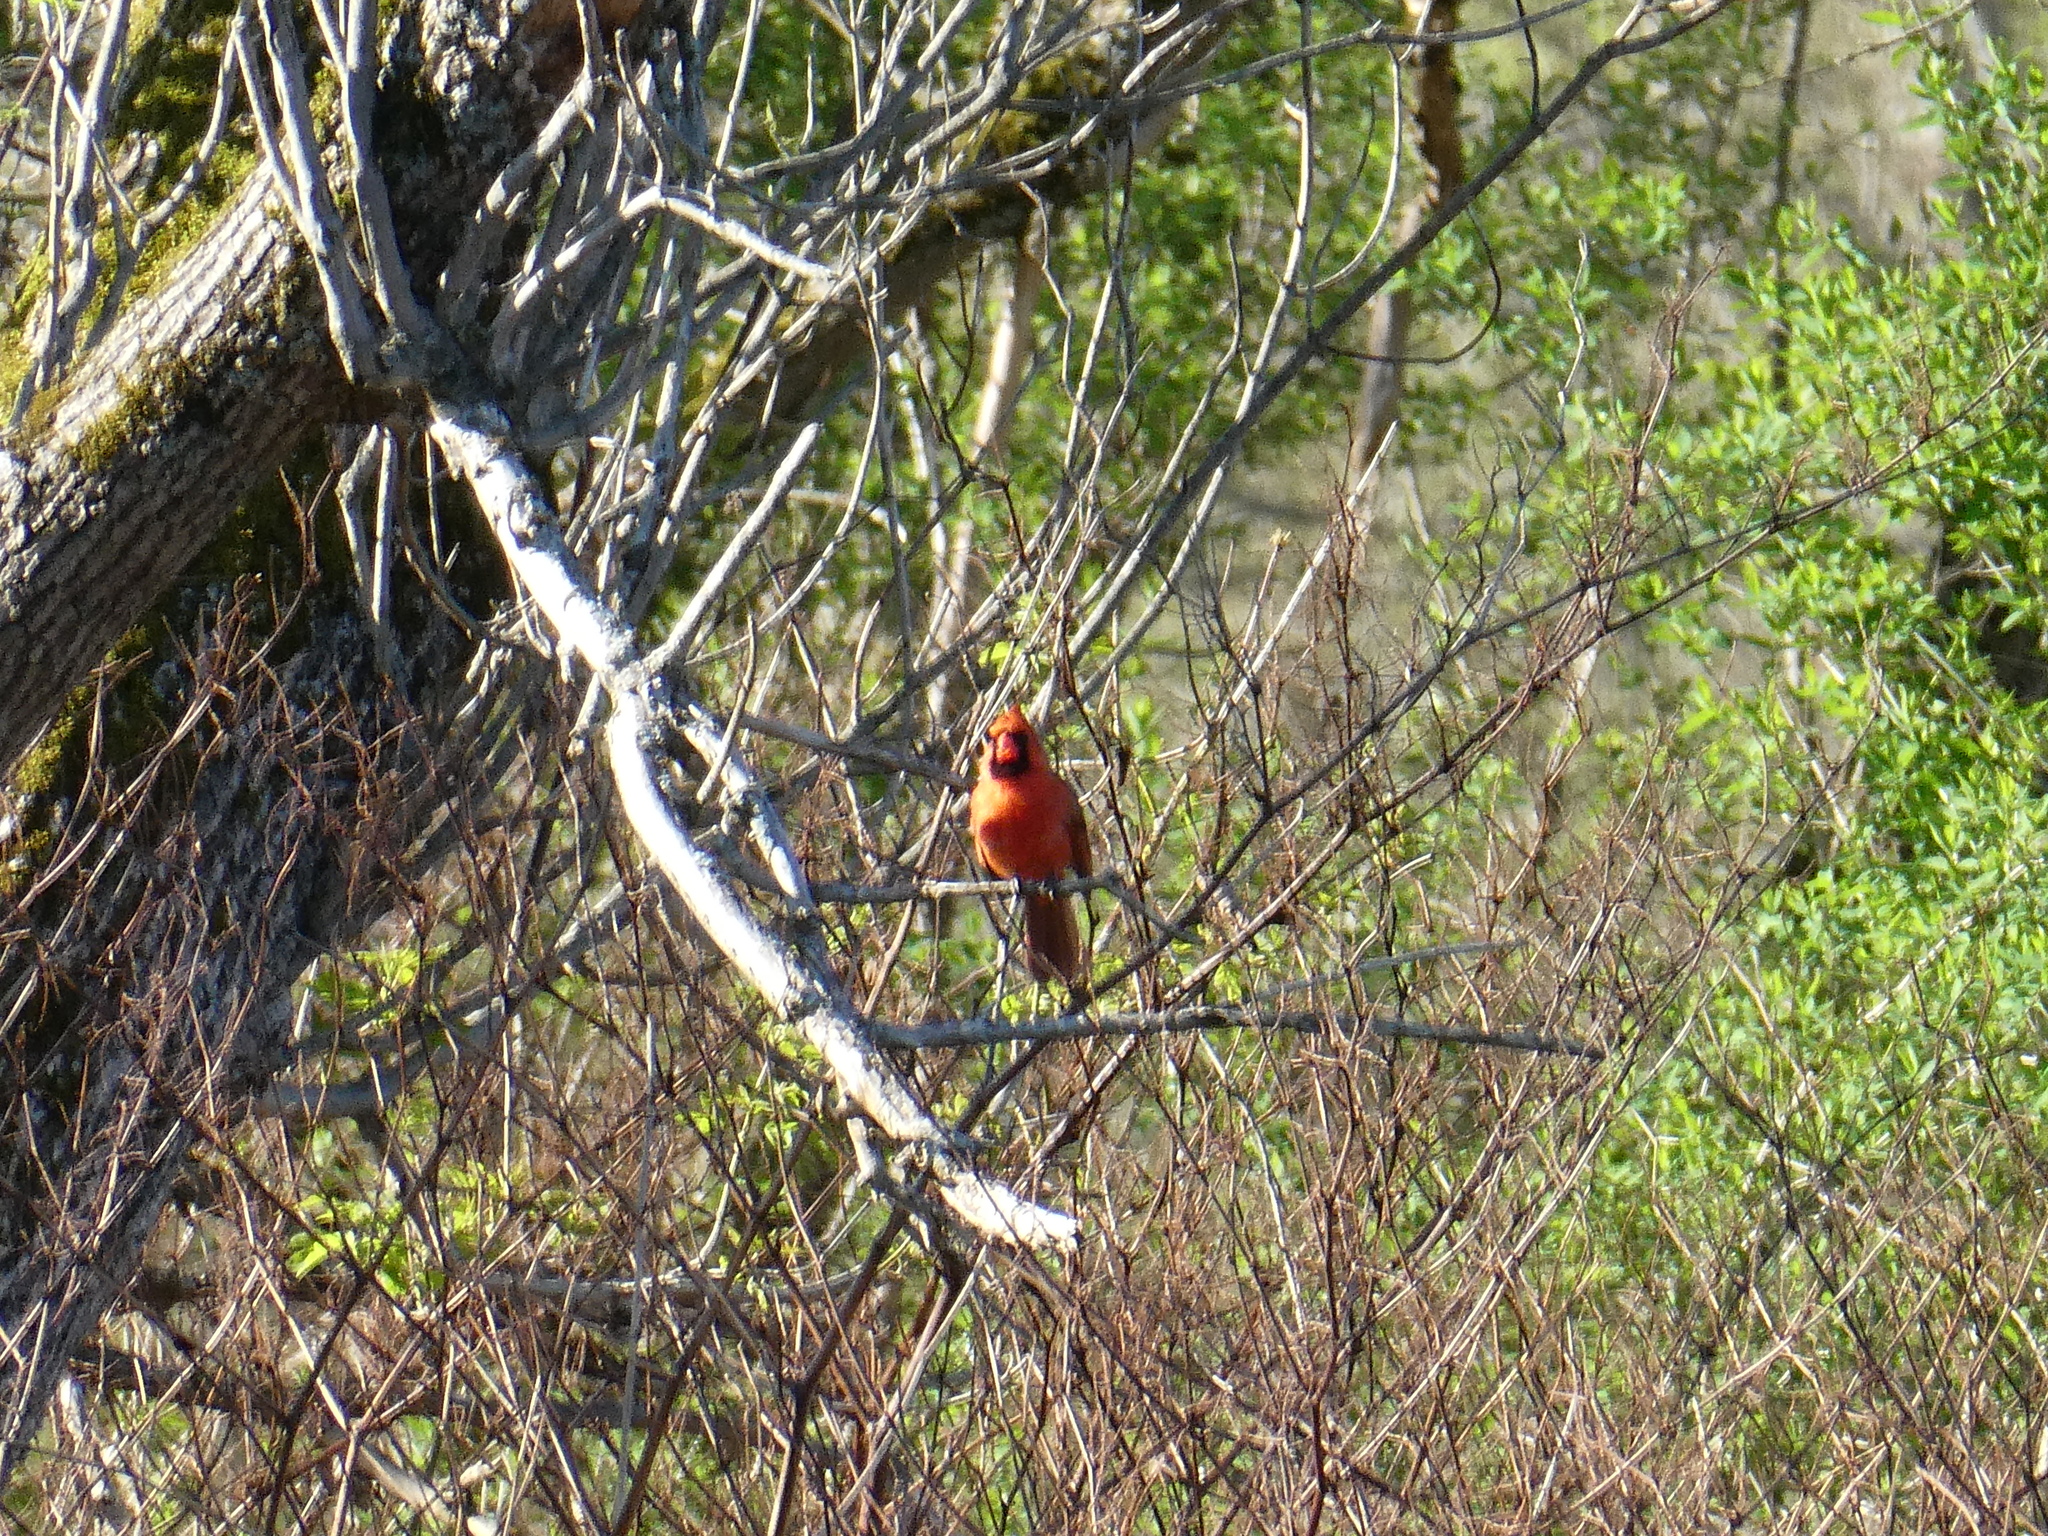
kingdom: Animalia
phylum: Chordata
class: Aves
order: Passeriformes
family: Cardinalidae
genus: Cardinalis
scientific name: Cardinalis cardinalis
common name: Northern cardinal
